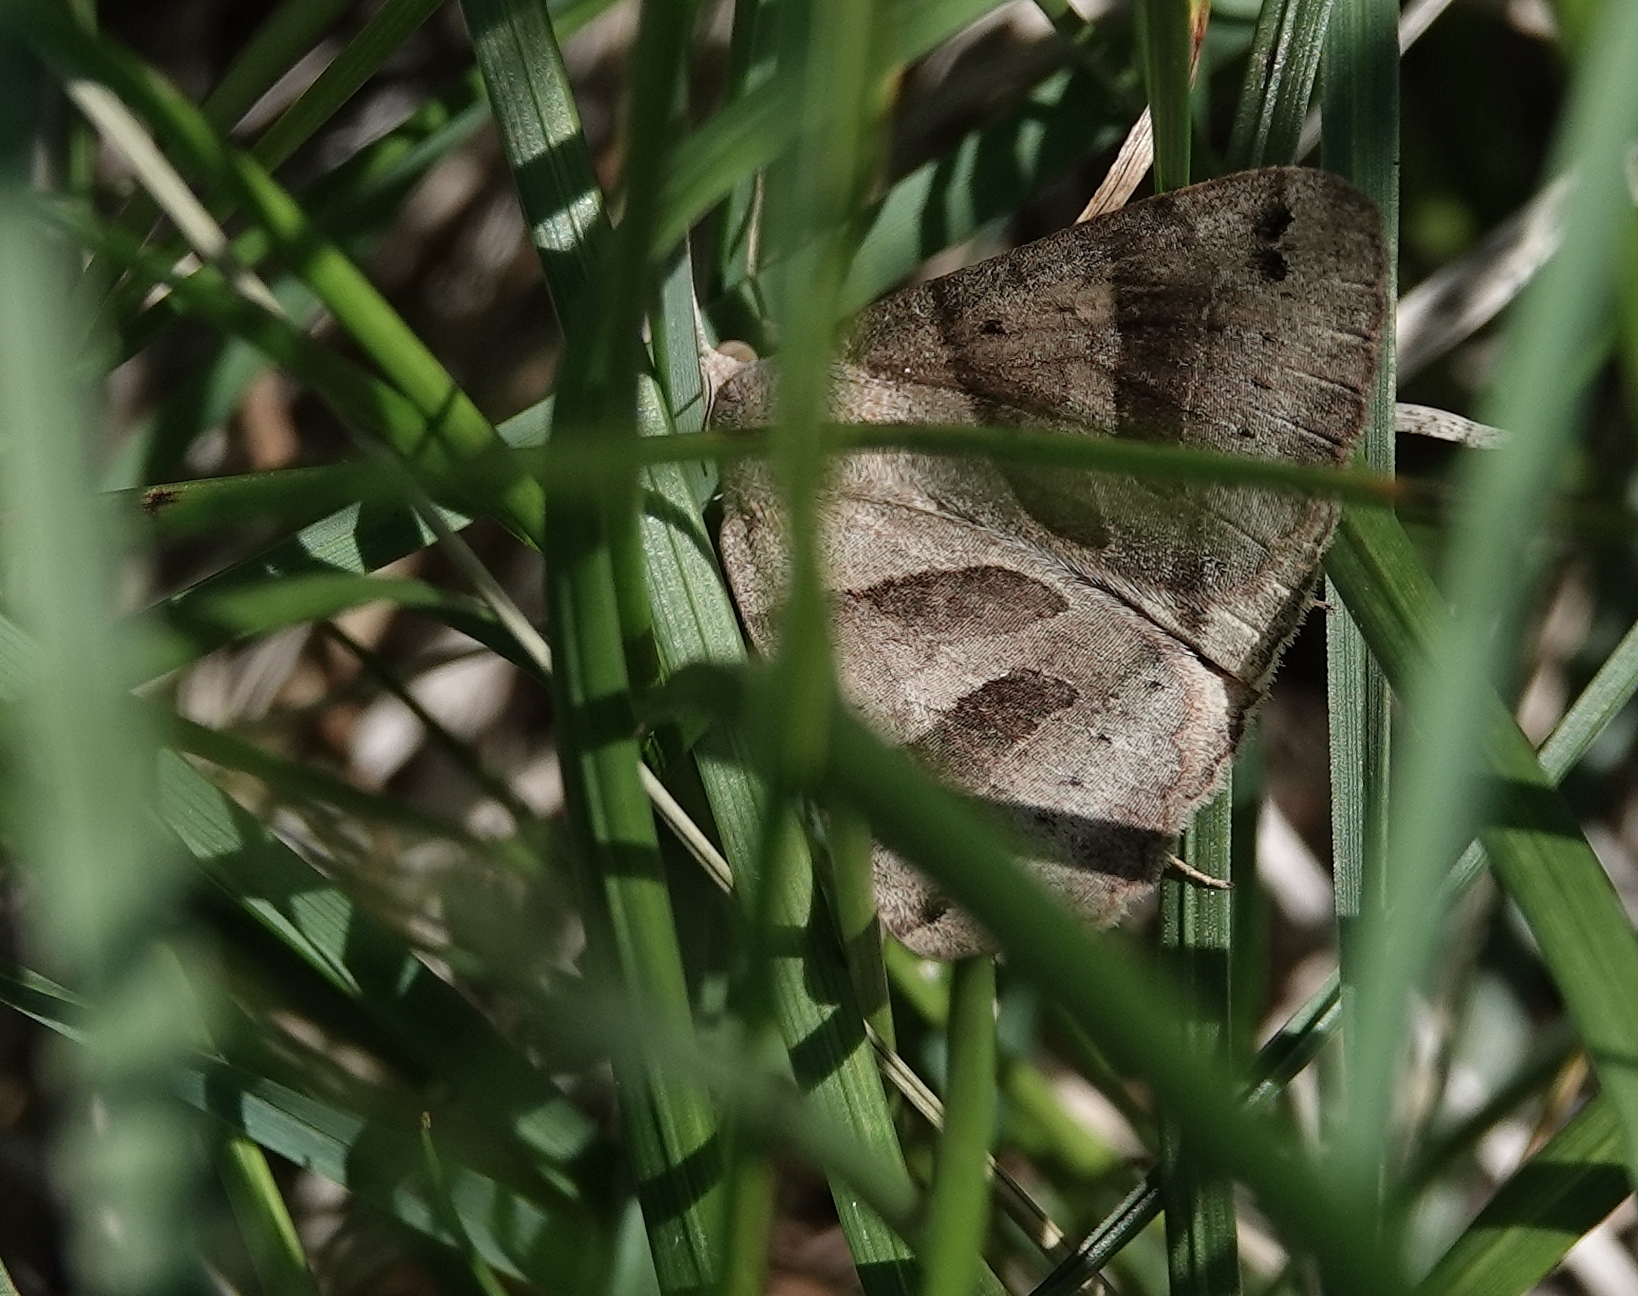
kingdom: Animalia
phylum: Arthropoda
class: Insecta
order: Lepidoptera
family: Erebidae
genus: Caenurgina
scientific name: Caenurgina erechtea
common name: Forage looper moth
